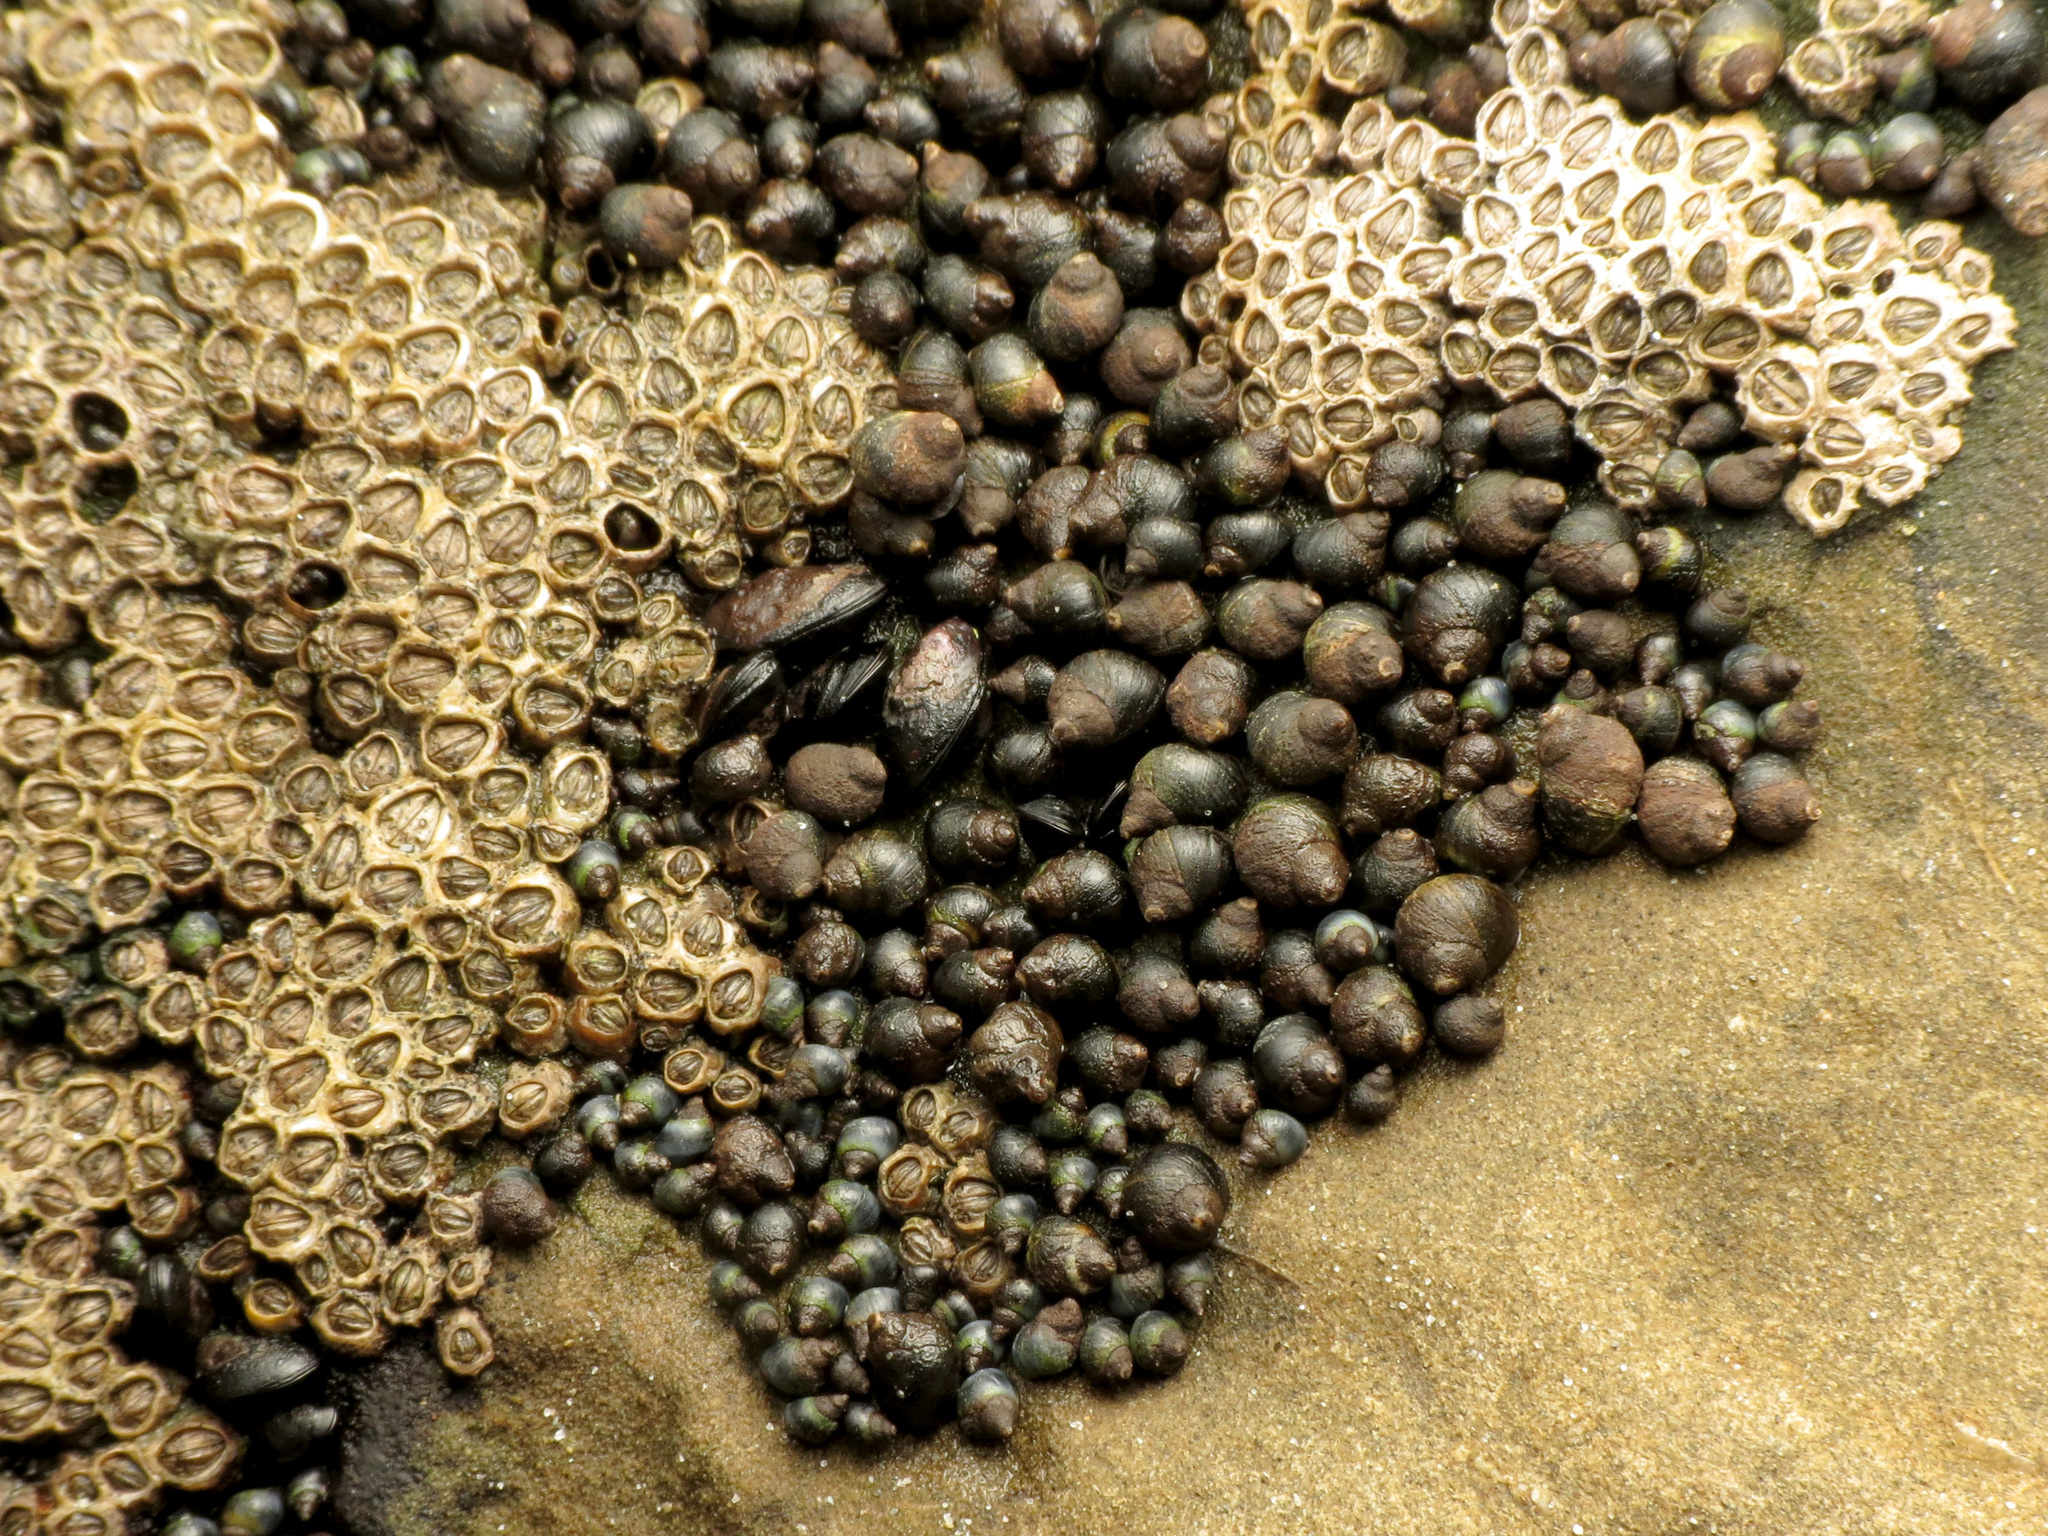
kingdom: Animalia
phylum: Mollusca
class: Gastropoda
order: Littorinimorpha
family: Littorinidae
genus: Austrolittorina
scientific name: Austrolittorina antipodum
